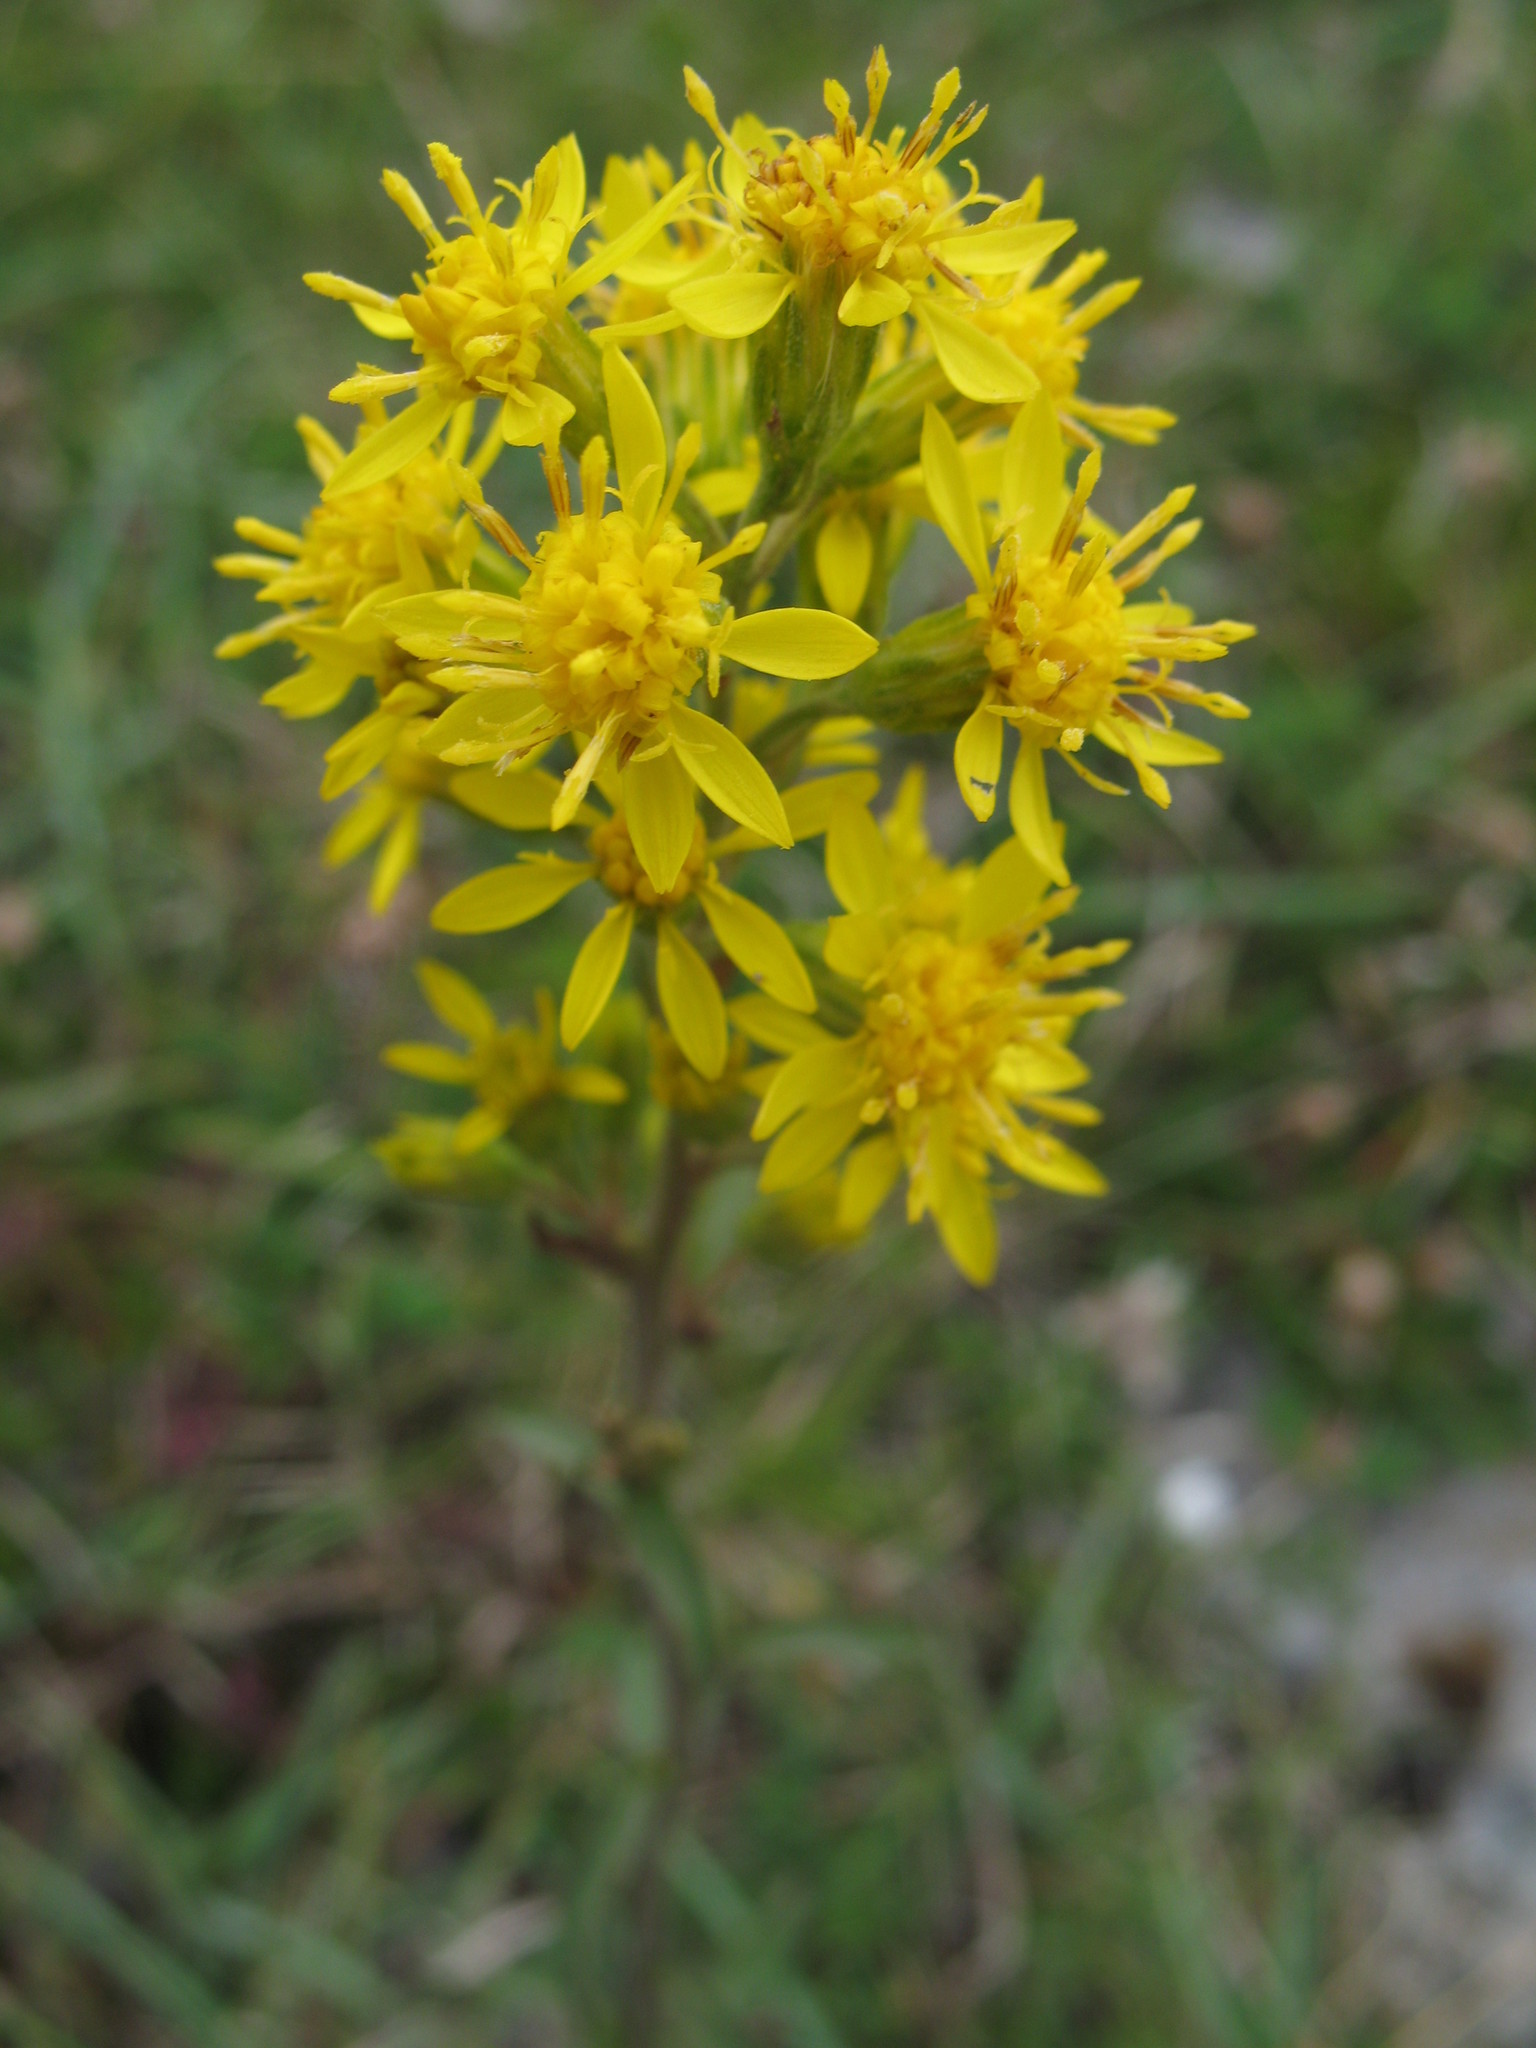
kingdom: Plantae
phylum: Tracheophyta
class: Magnoliopsida
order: Asterales
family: Asteraceae
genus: Solidago
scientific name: Solidago virgaurea
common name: Goldenrod
